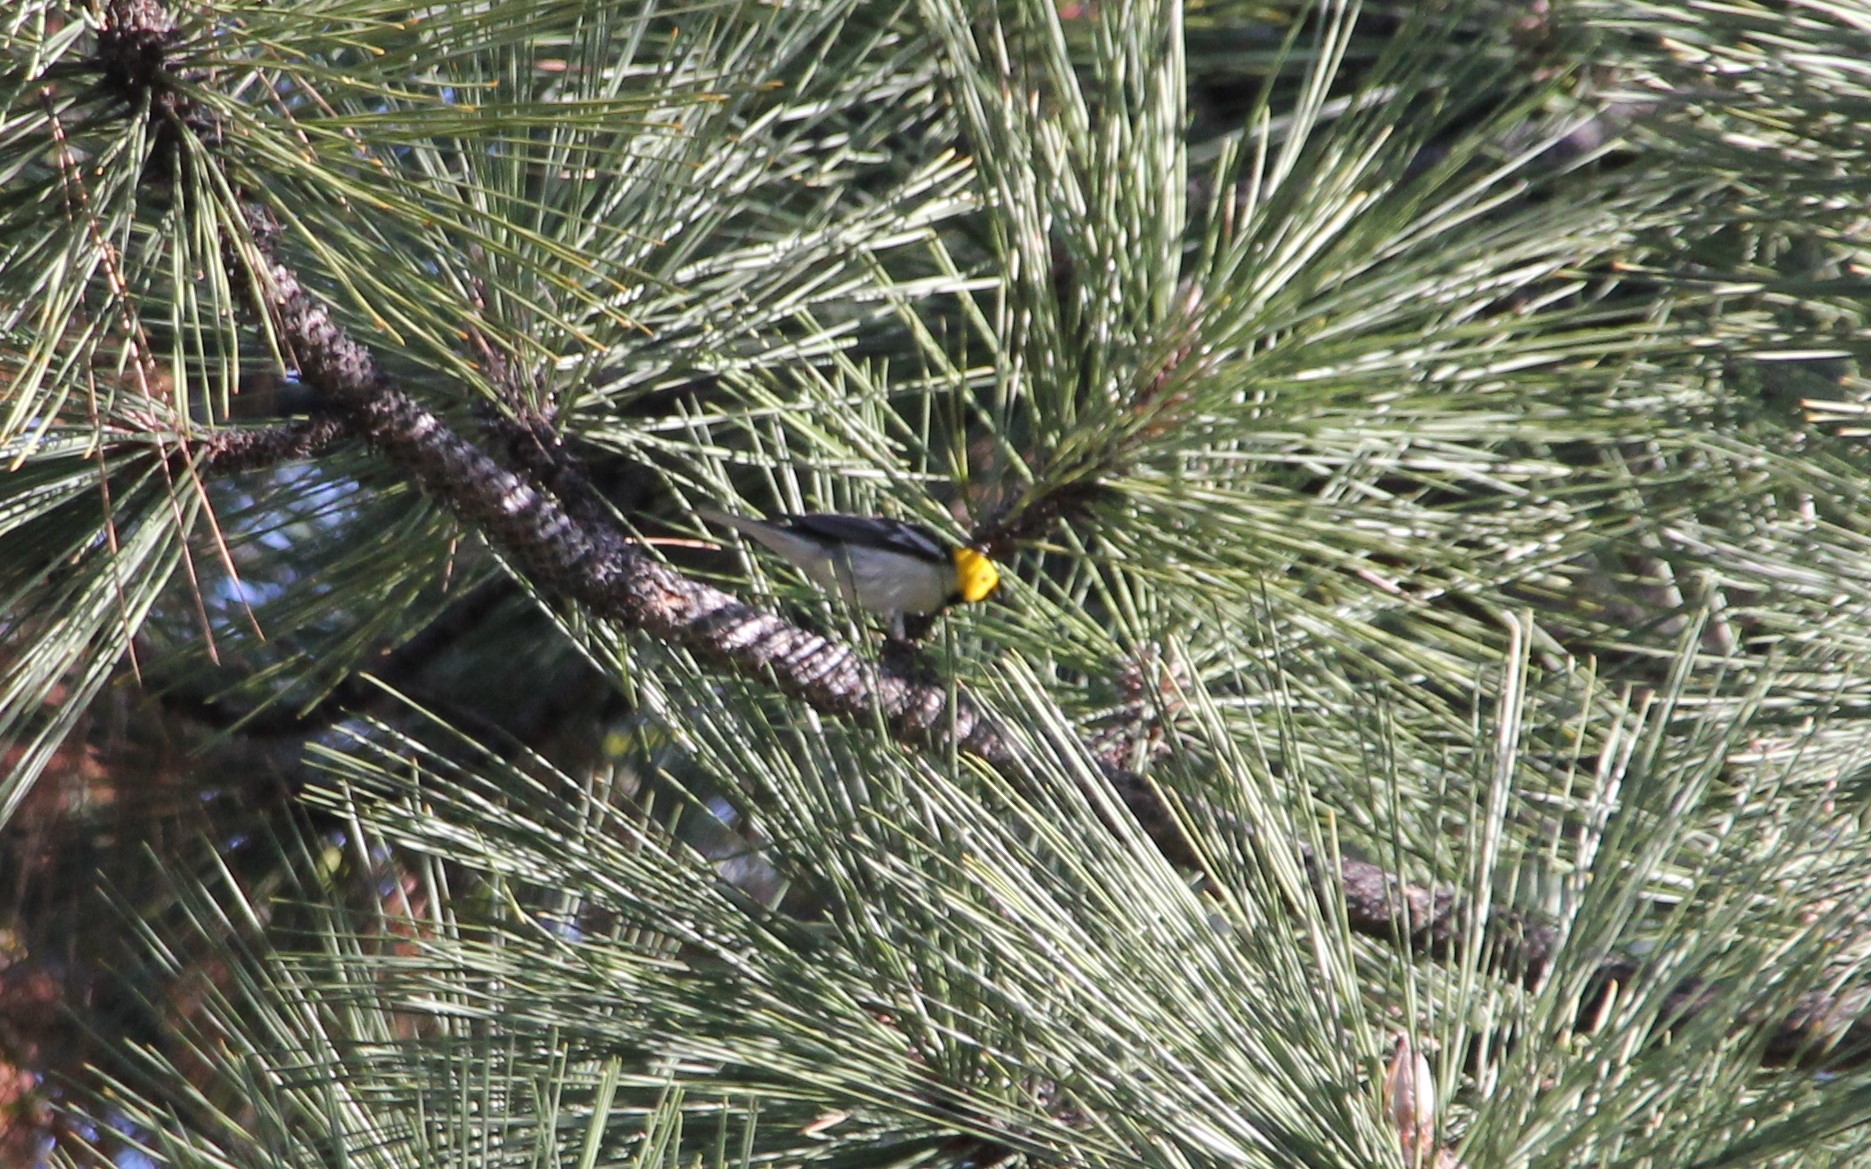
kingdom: Animalia
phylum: Chordata
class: Aves
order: Passeriformes
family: Parulidae
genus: Setophaga
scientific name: Setophaga occidentalis
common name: Hermit warbler
